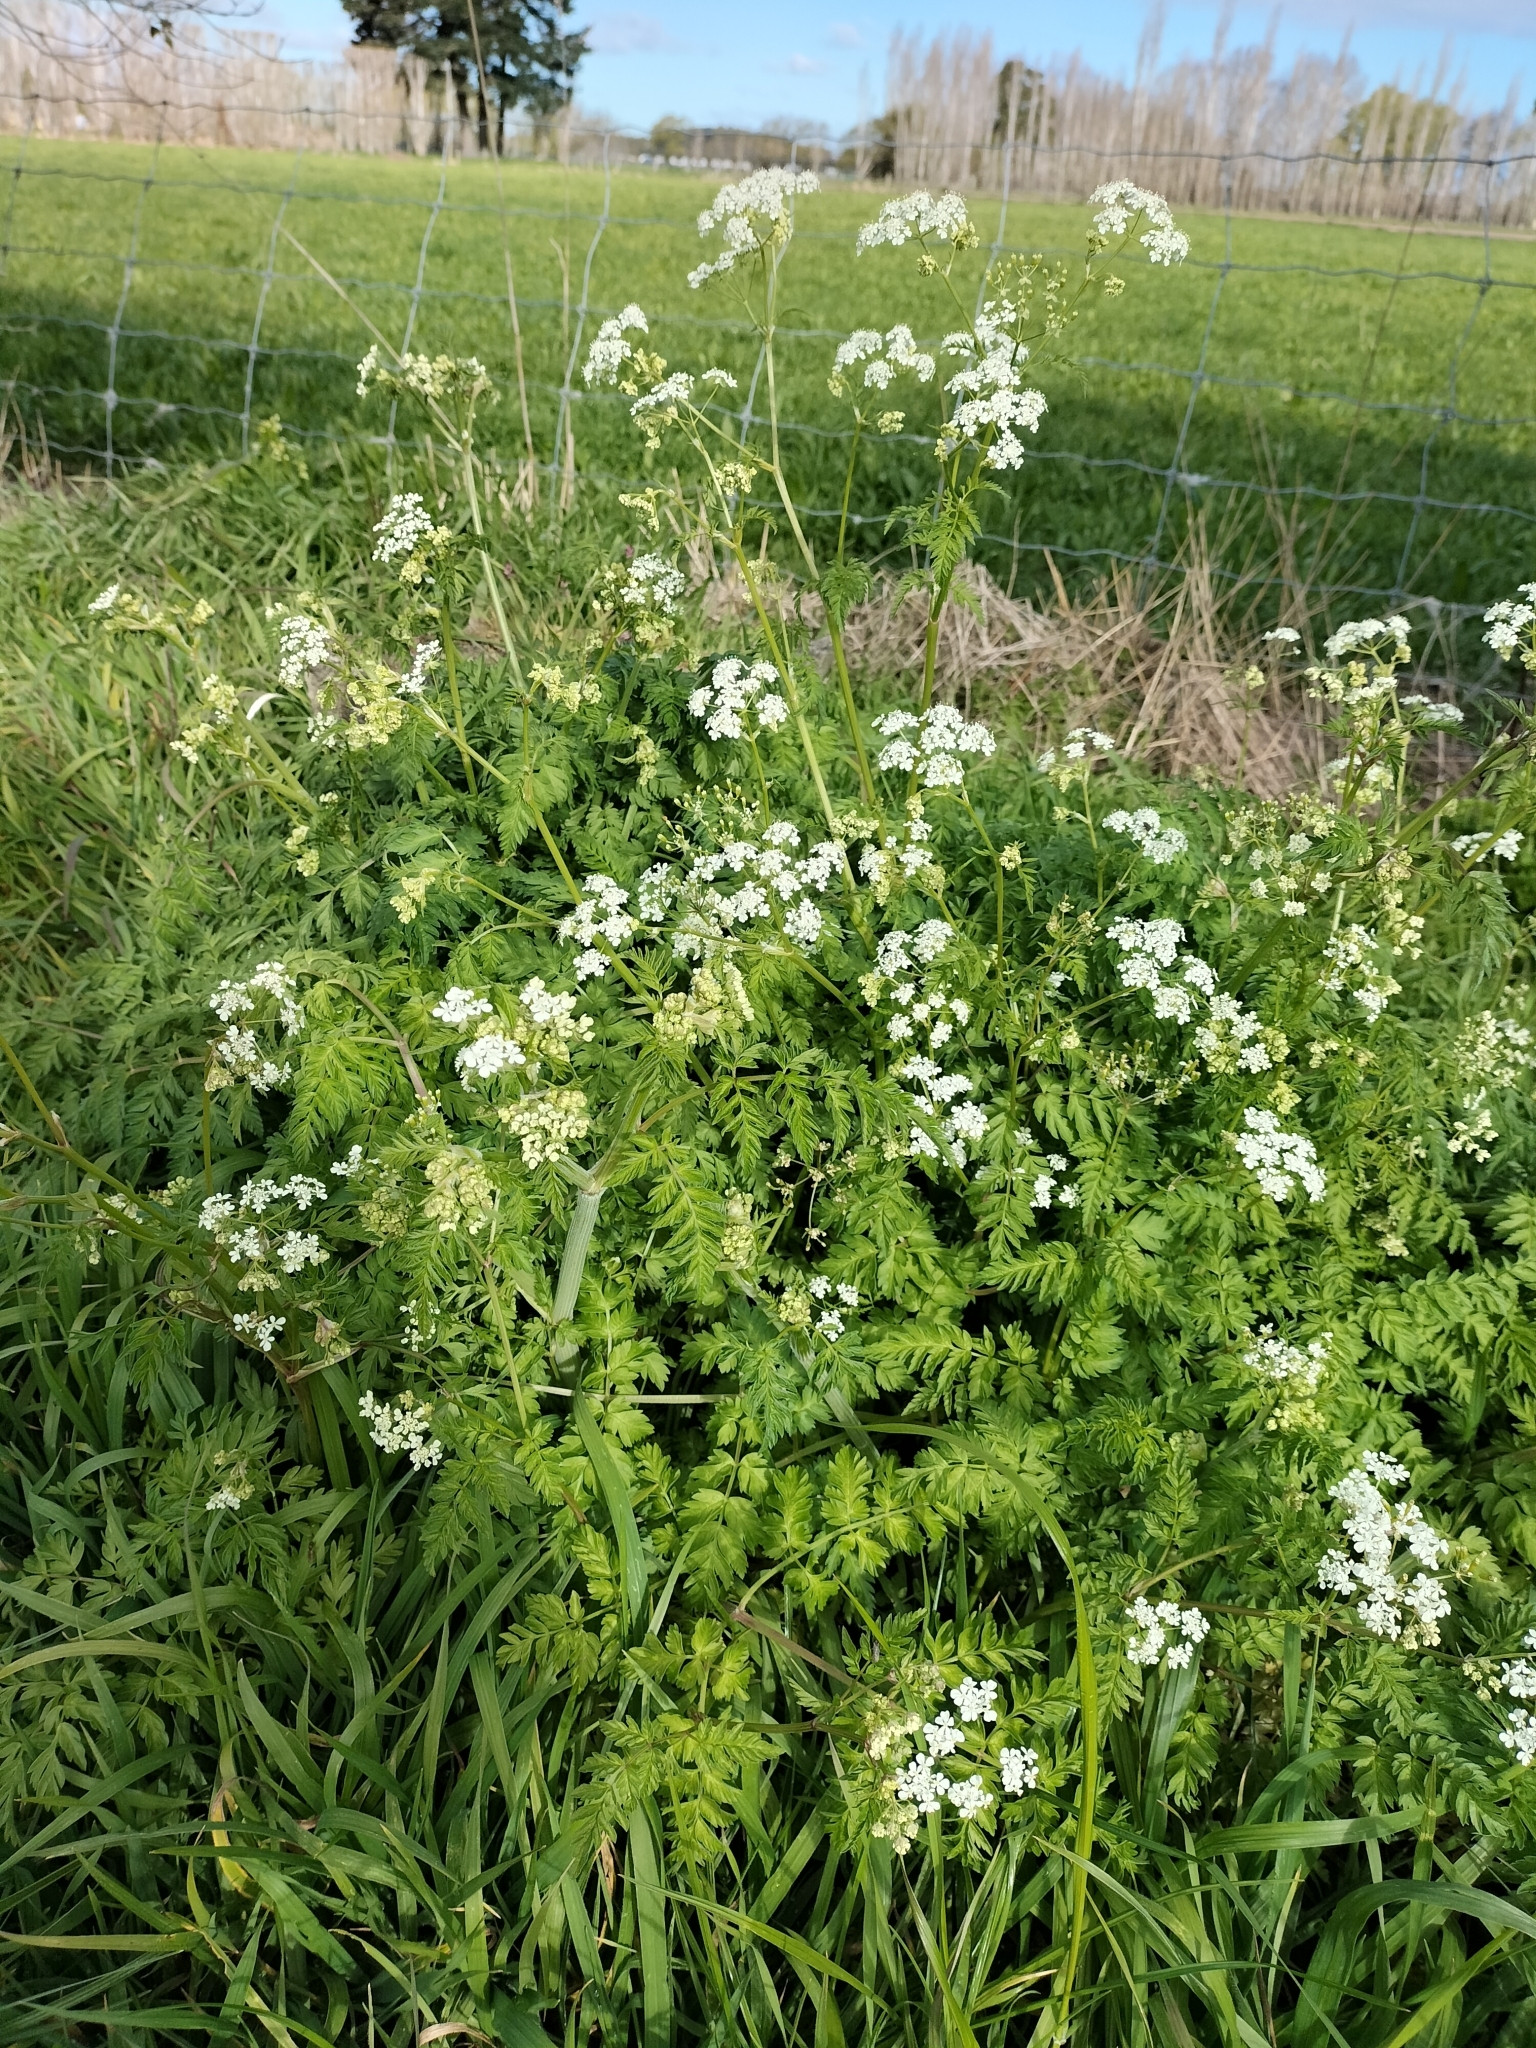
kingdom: Plantae
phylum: Tracheophyta
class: Magnoliopsida
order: Apiales
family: Apiaceae
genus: Anthriscus
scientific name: Anthriscus sylvestris
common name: Cow parsley
